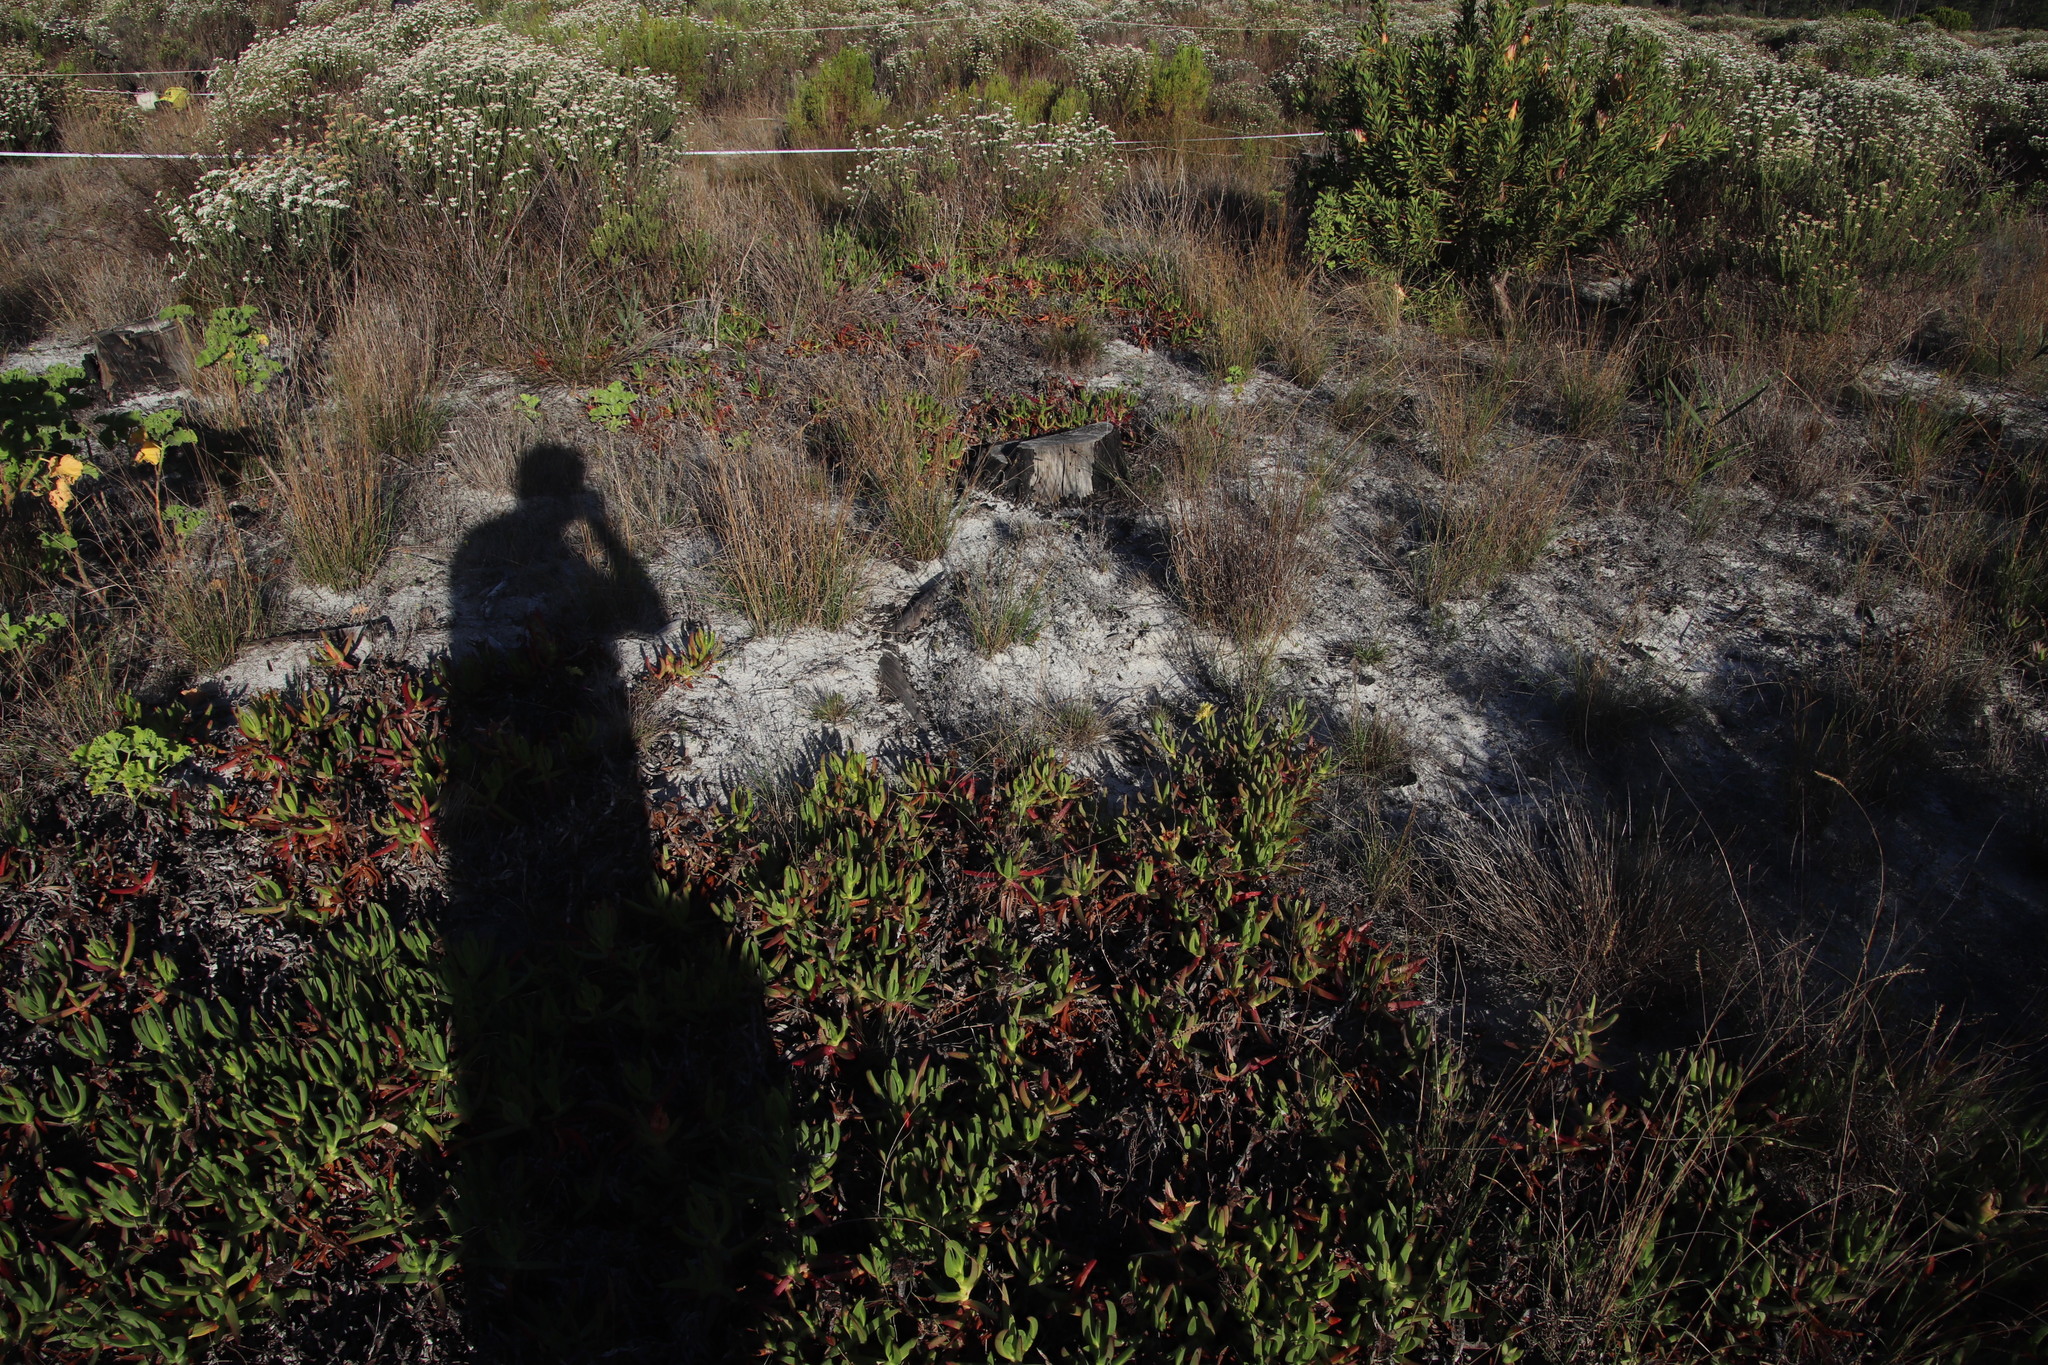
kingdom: Plantae
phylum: Tracheophyta
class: Magnoliopsida
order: Caryophyllales
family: Aizoaceae
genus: Carpobrotus
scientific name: Carpobrotus edulis
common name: Hottentot-fig
